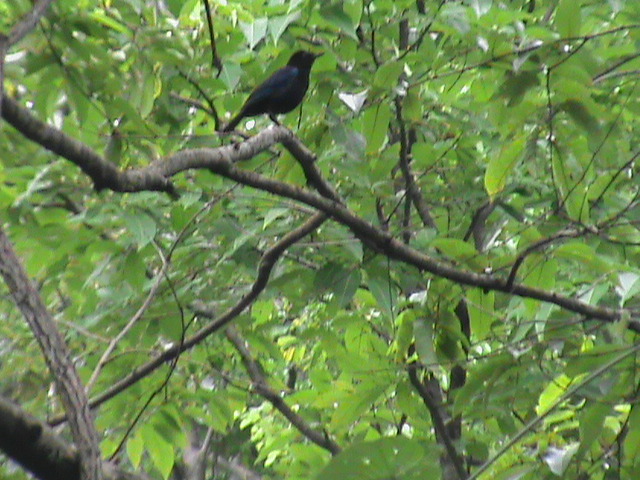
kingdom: Animalia
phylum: Chordata
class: Aves
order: Passeriformes
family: Muscicapidae
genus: Myophonus
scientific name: Myophonus horsfieldii
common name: Malabar whistling-thrush
